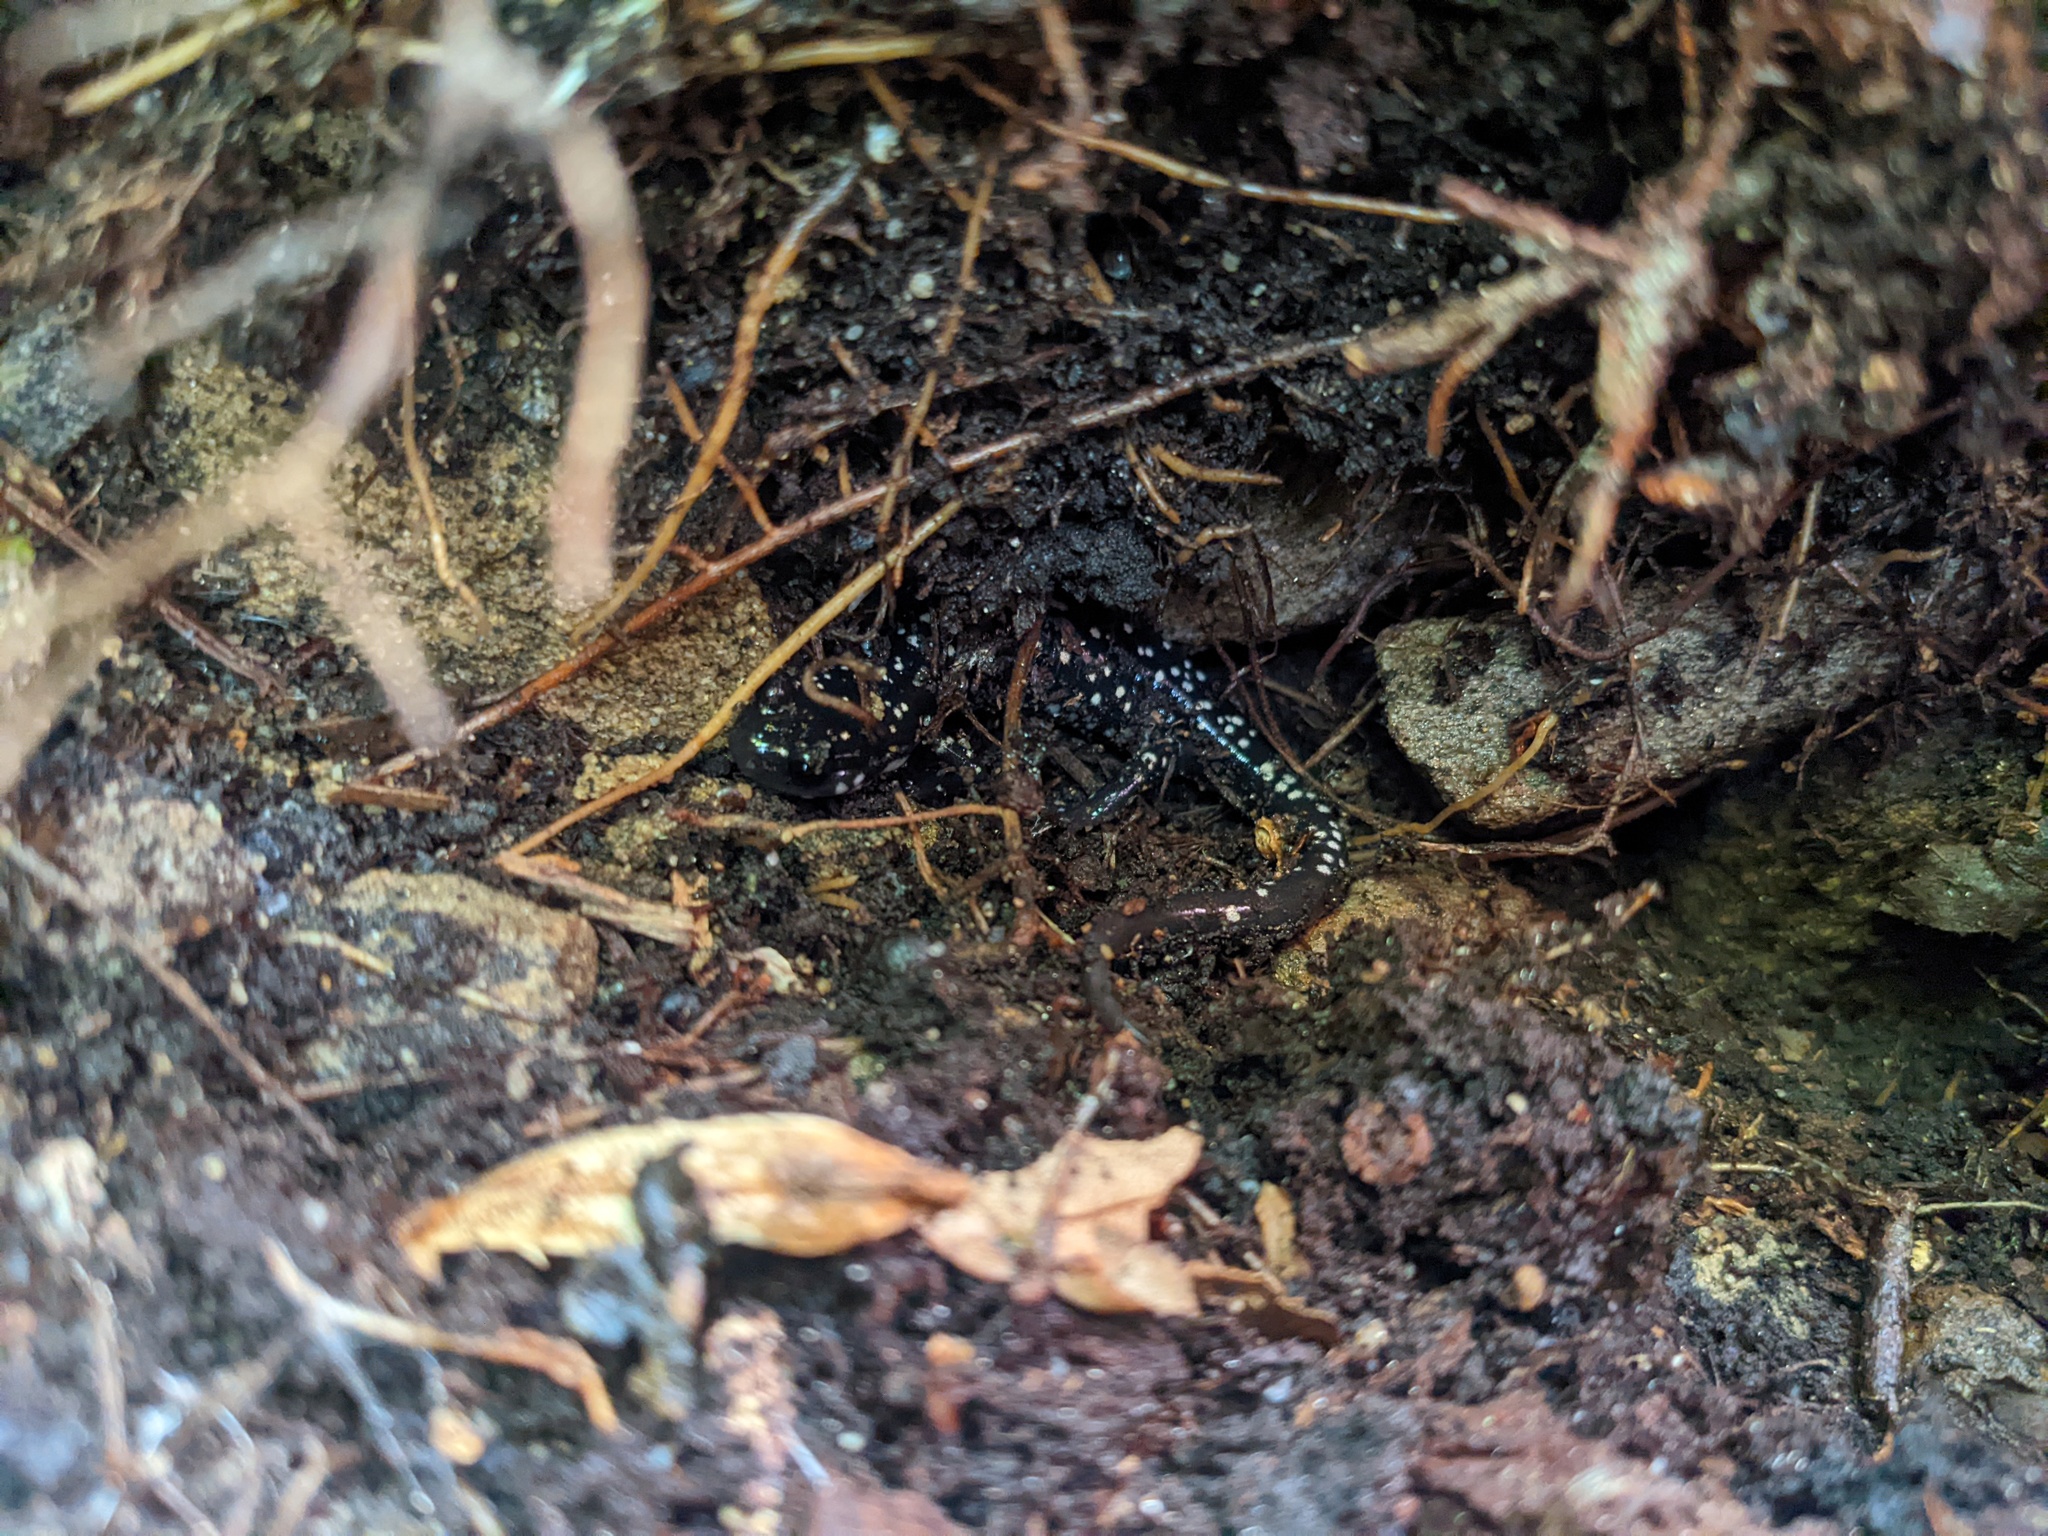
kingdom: Animalia
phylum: Chordata
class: Amphibia
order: Caudata
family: Plethodontidae
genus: Plethodon
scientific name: Plethodon glutinosus
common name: Northern slimy salamander
